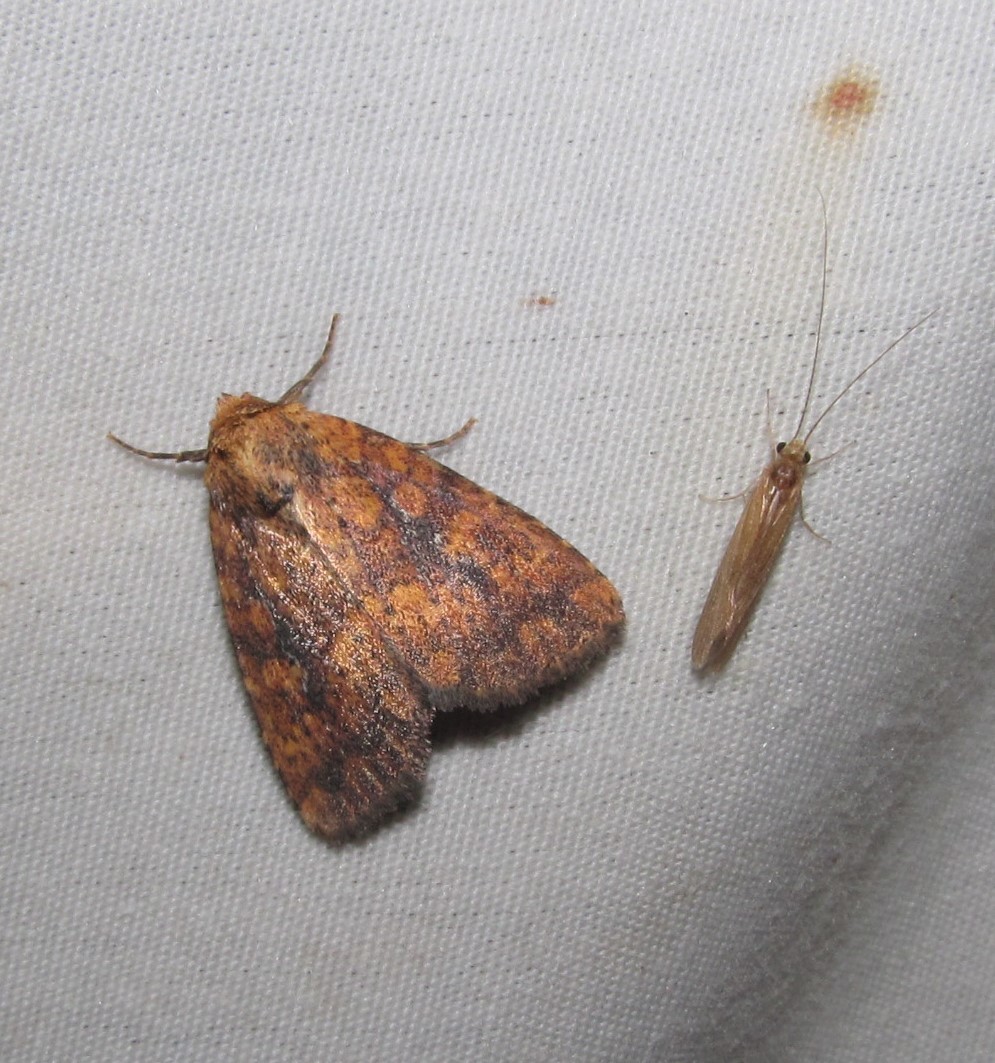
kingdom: Animalia
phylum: Arthropoda
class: Insecta
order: Lepidoptera
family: Noctuidae
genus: Perigea
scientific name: Perigea xanthioides
